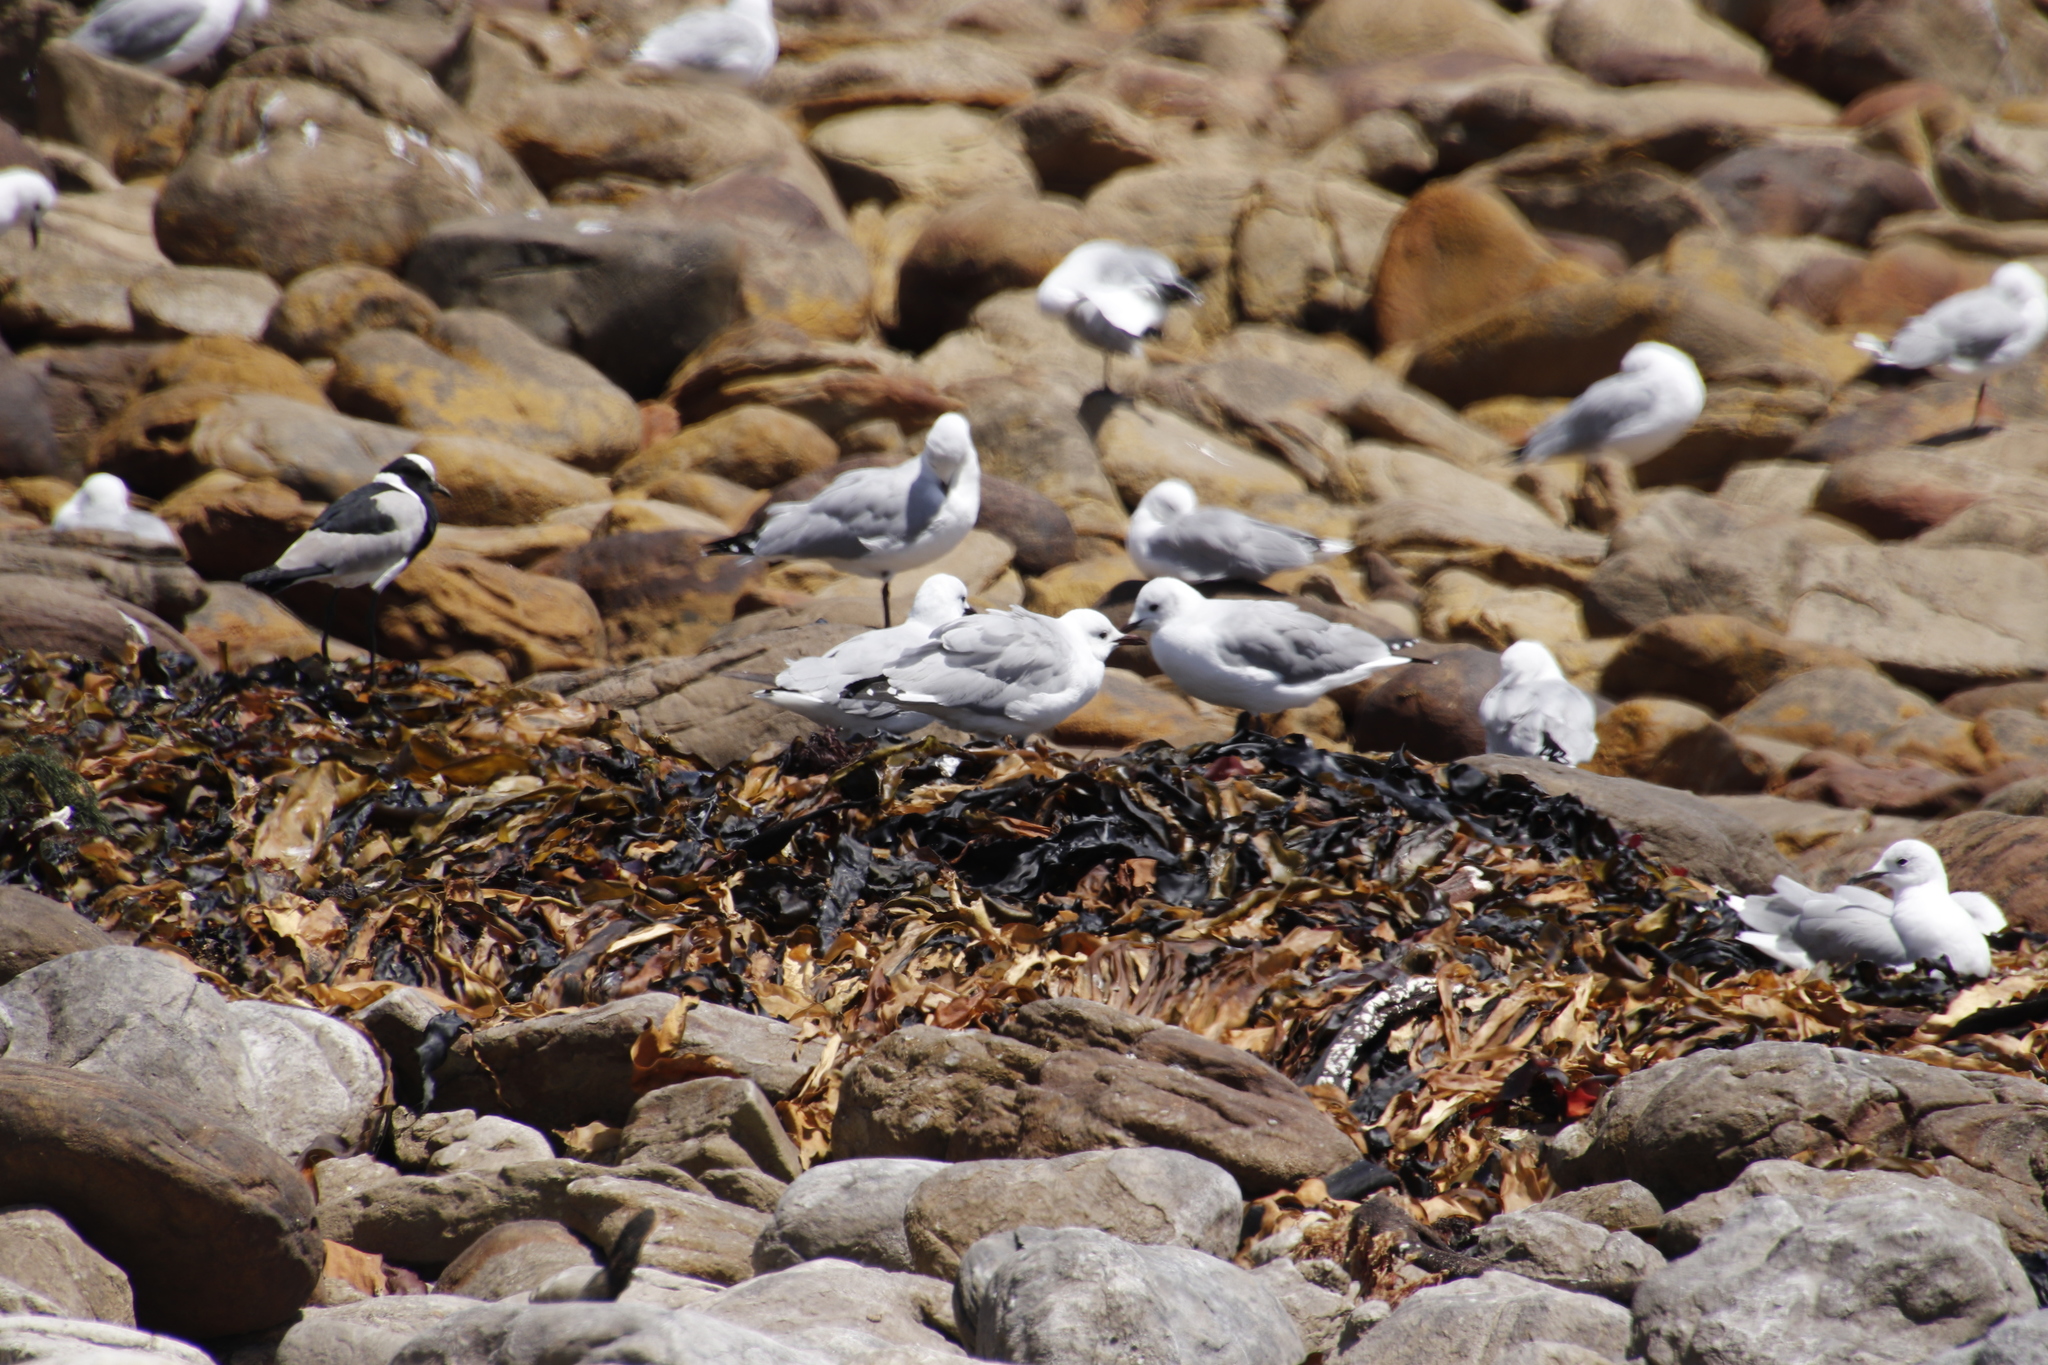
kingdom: Animalia
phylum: Chordata
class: Aves
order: Charadriiformes
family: Laridae
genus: Chroicocephalus
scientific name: Chroicocephalus hartlaubii
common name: Hartlaub's gull
